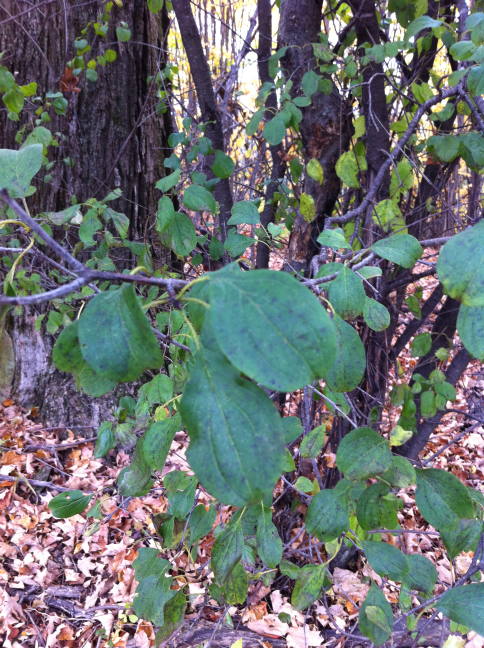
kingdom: Plantae
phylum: Tracheophyta
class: Magnoliopsida
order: Rosales
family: Rhamnaceae
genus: Rhamnus
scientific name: Rhamnus cathartica
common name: Common buckthorn
